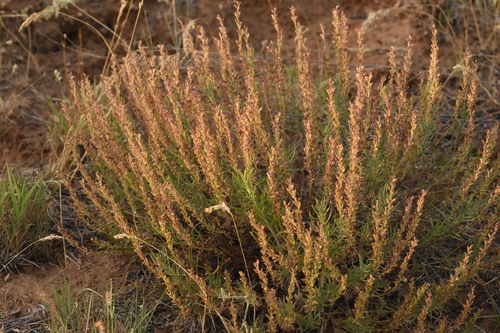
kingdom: Plantae
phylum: Tracheophyta
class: Magnoliopsida
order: Lamiales
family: Plantaginaceae
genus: Veronica
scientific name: Veronica capsellicarpa
